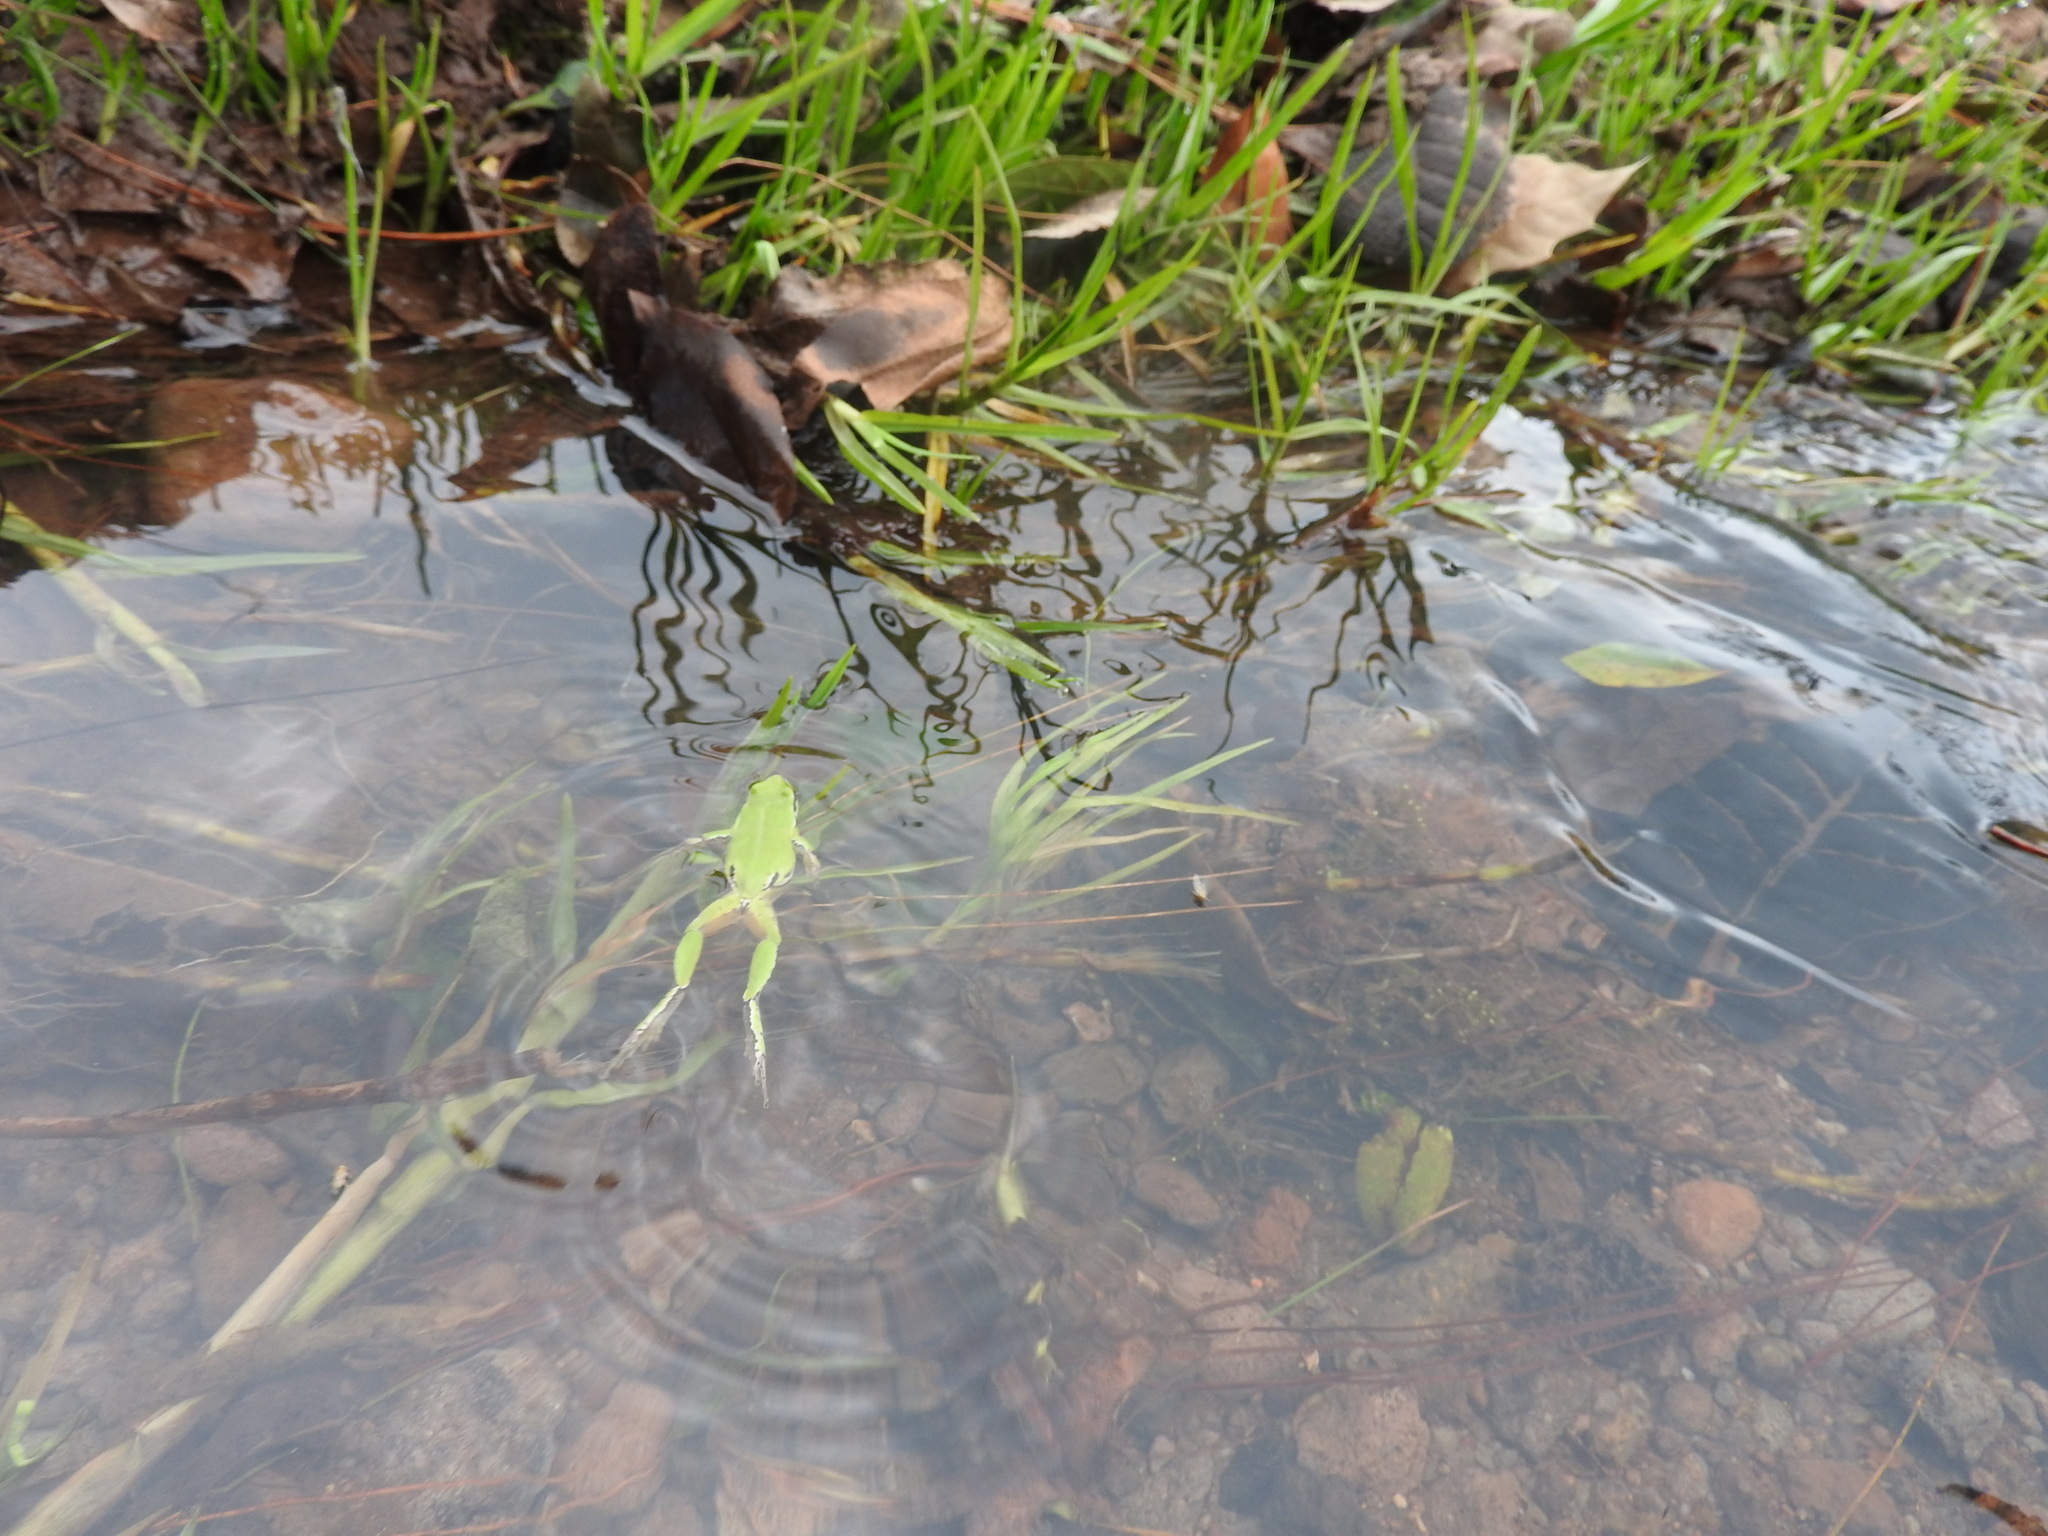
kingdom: Animalia
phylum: Chordata
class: Amphibia
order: Anura
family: Hylidae
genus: Dryophytes
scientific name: Dryophytes eximius
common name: Mountain treefrog
